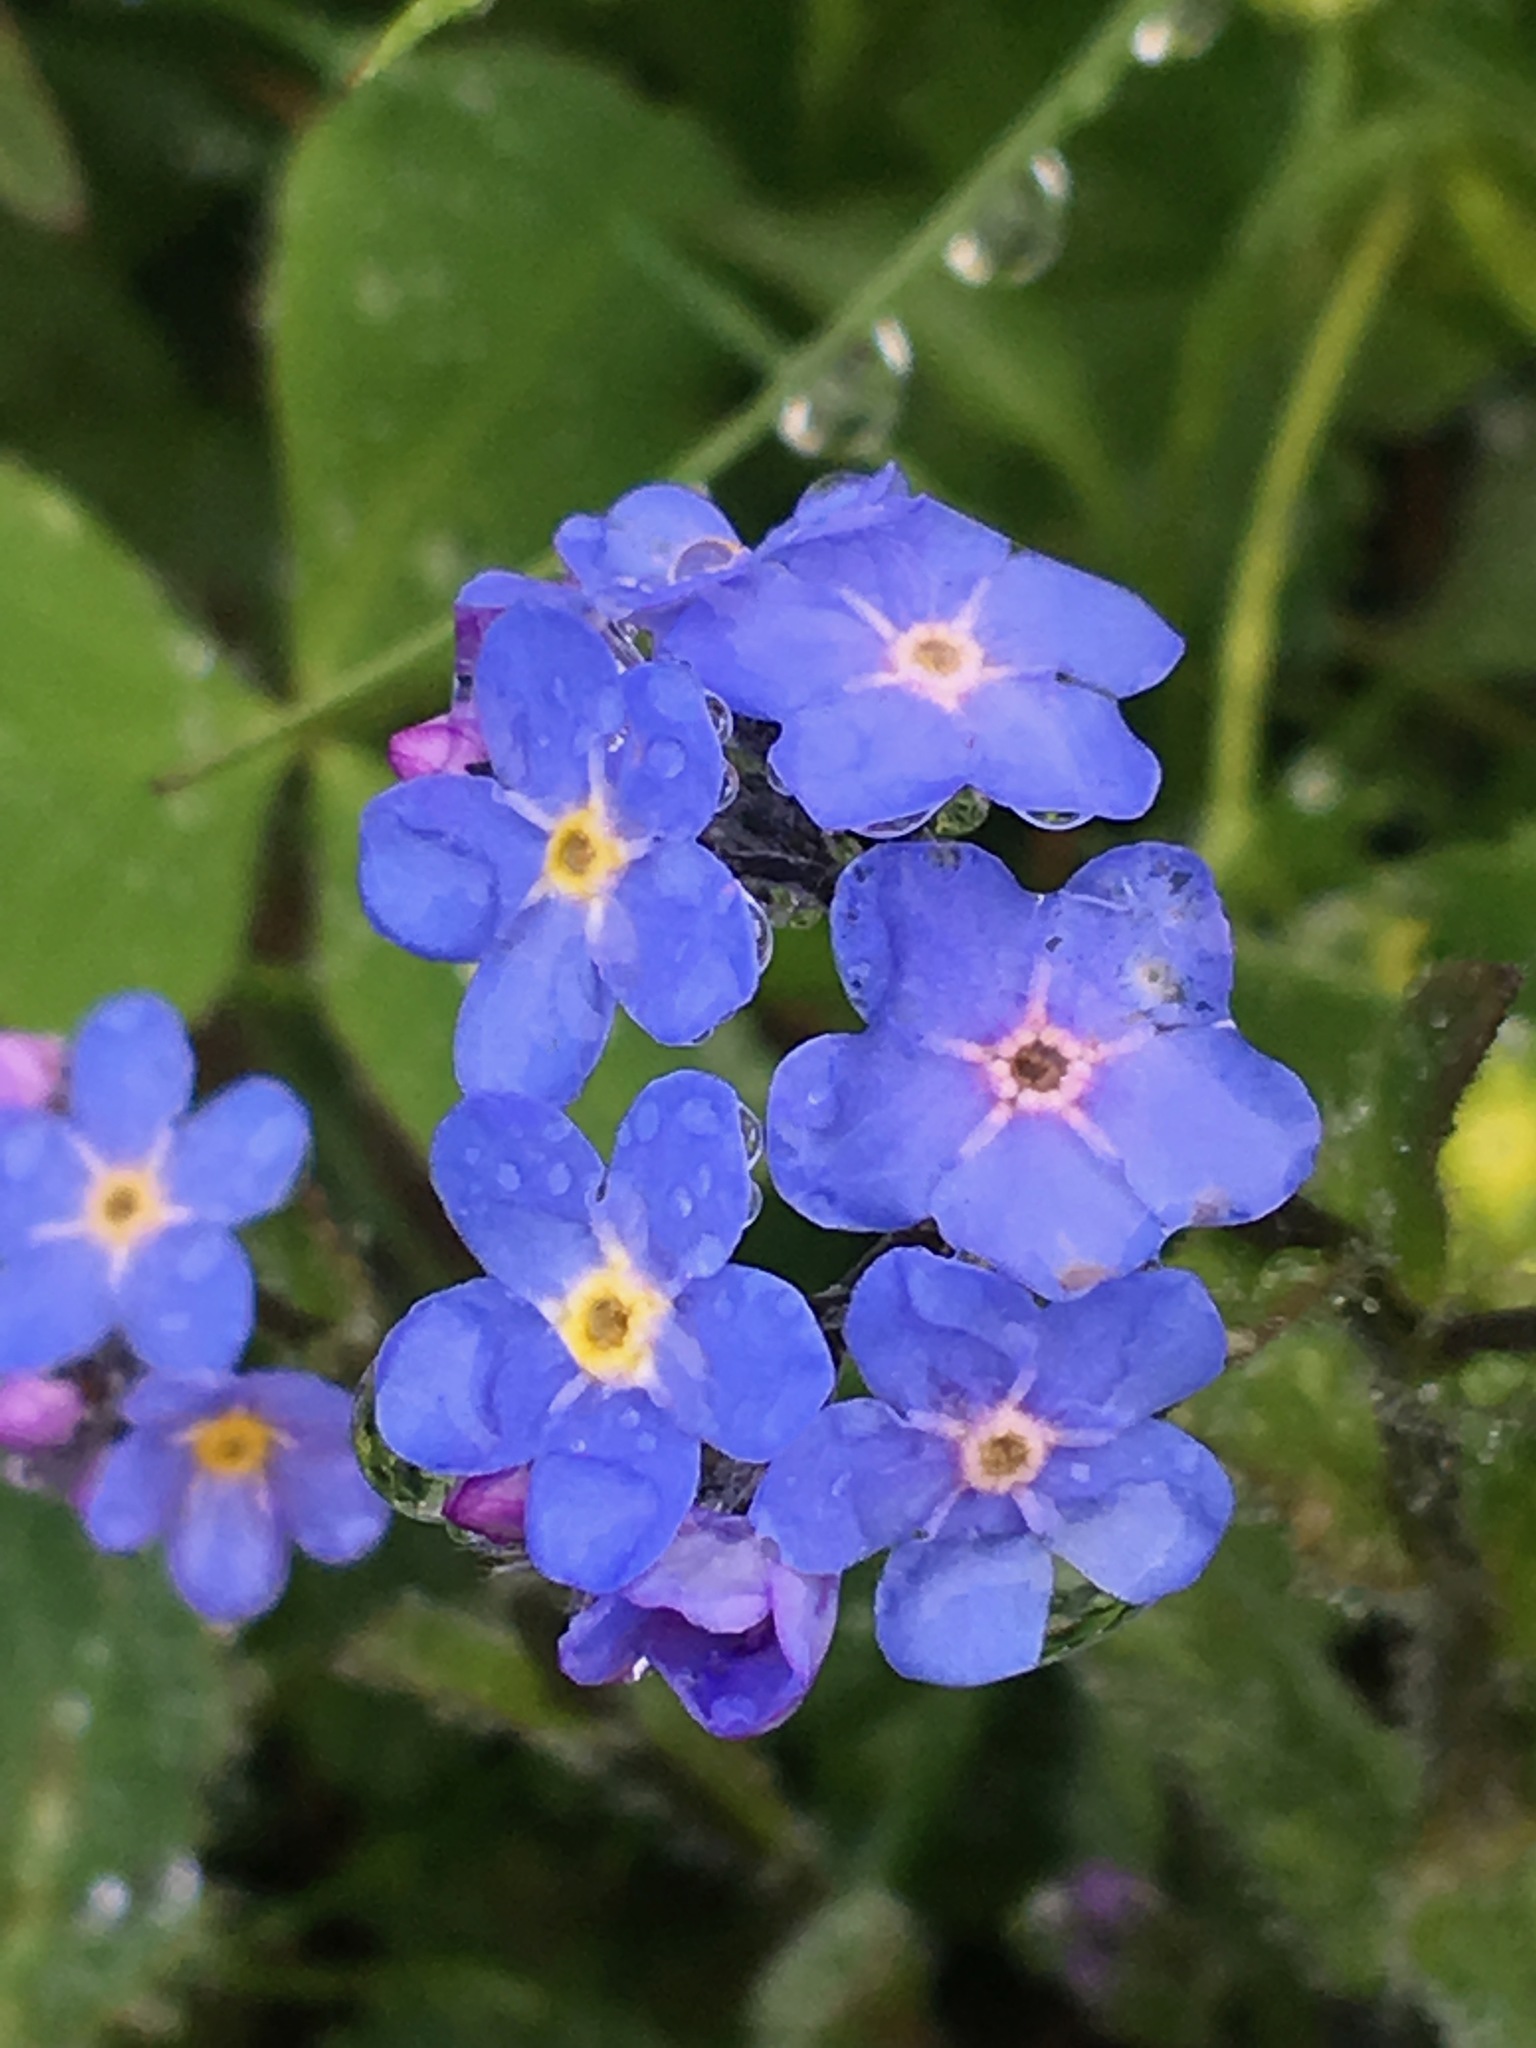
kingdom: Plantae
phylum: Tracheophyta
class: Magnoliopsida
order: Boraginales
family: Boraginaceae
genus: Myosotis
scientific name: Myosotis alpestris
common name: Alpine forget-me-not
